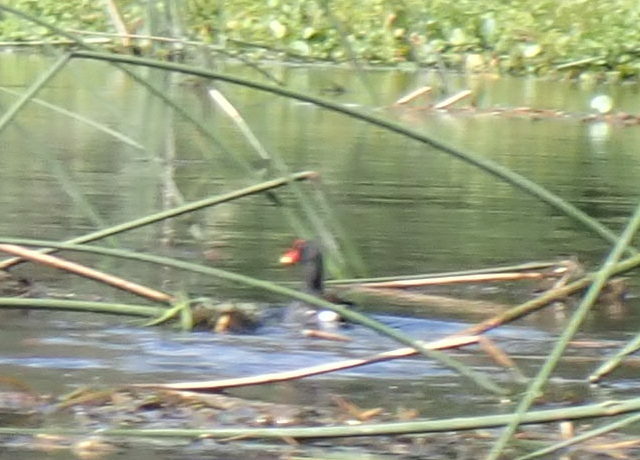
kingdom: Animalia
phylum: Chordata
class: Aves
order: Gruiformes
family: Rallidae
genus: Gallinula
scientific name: Gallinula chloropus
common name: Common moorhen
